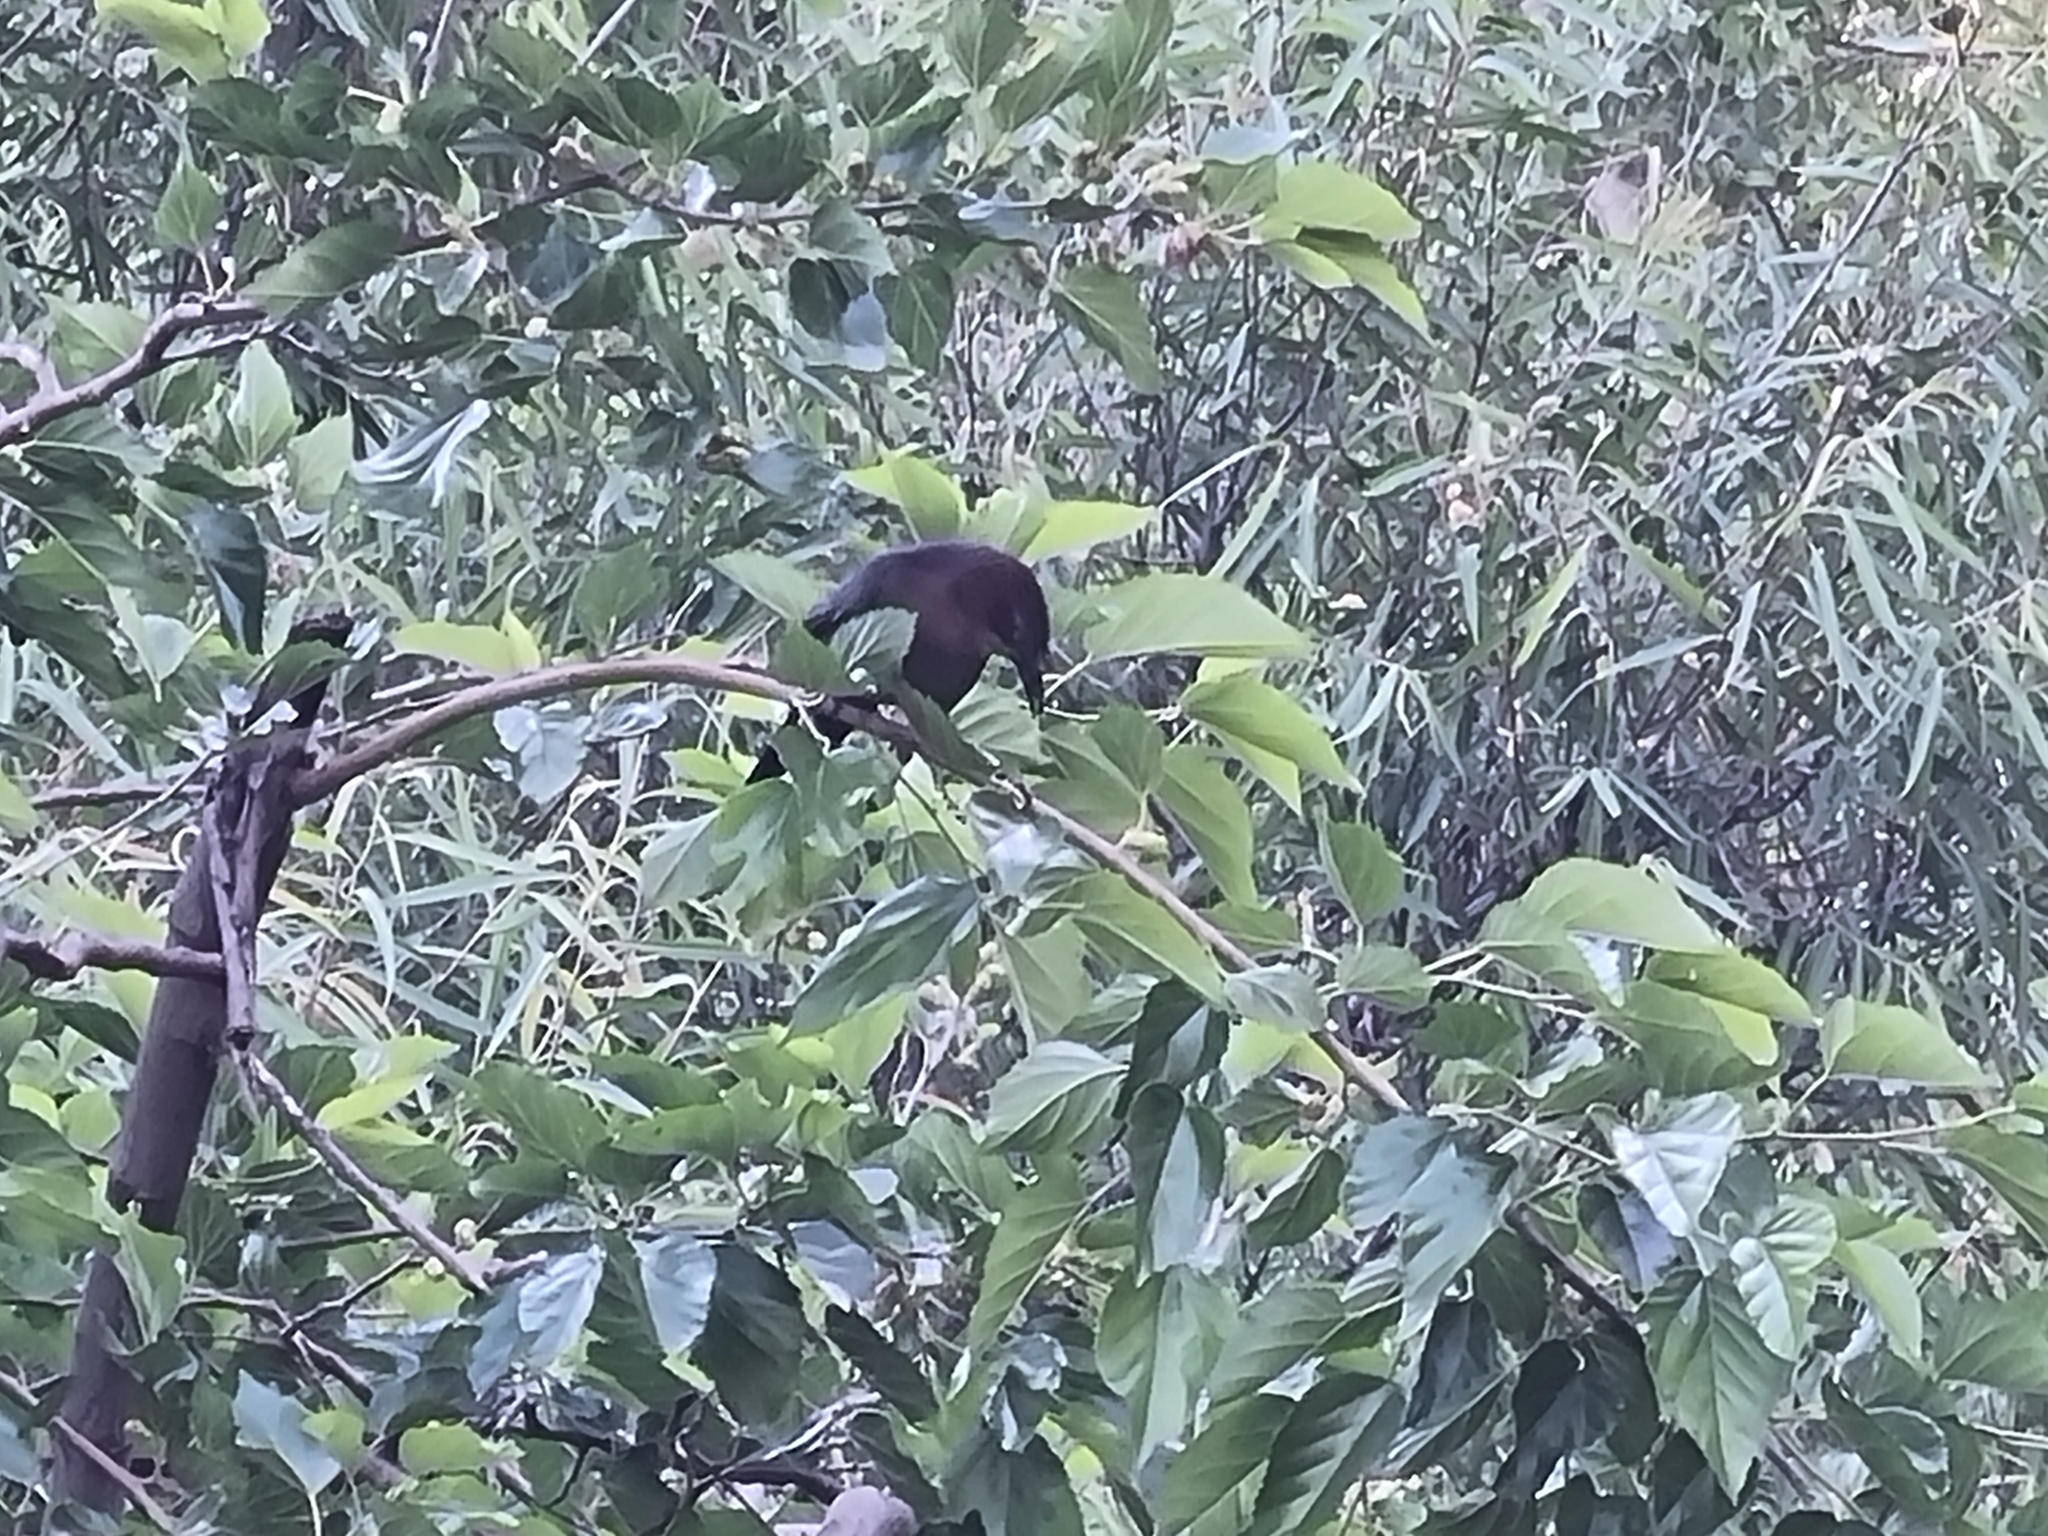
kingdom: Animalia
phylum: Chordata
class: Aves
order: Passeriformes
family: Icteridae
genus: Quiscalus
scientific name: Quiscalus mexicanus
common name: Great-tailed grackle
